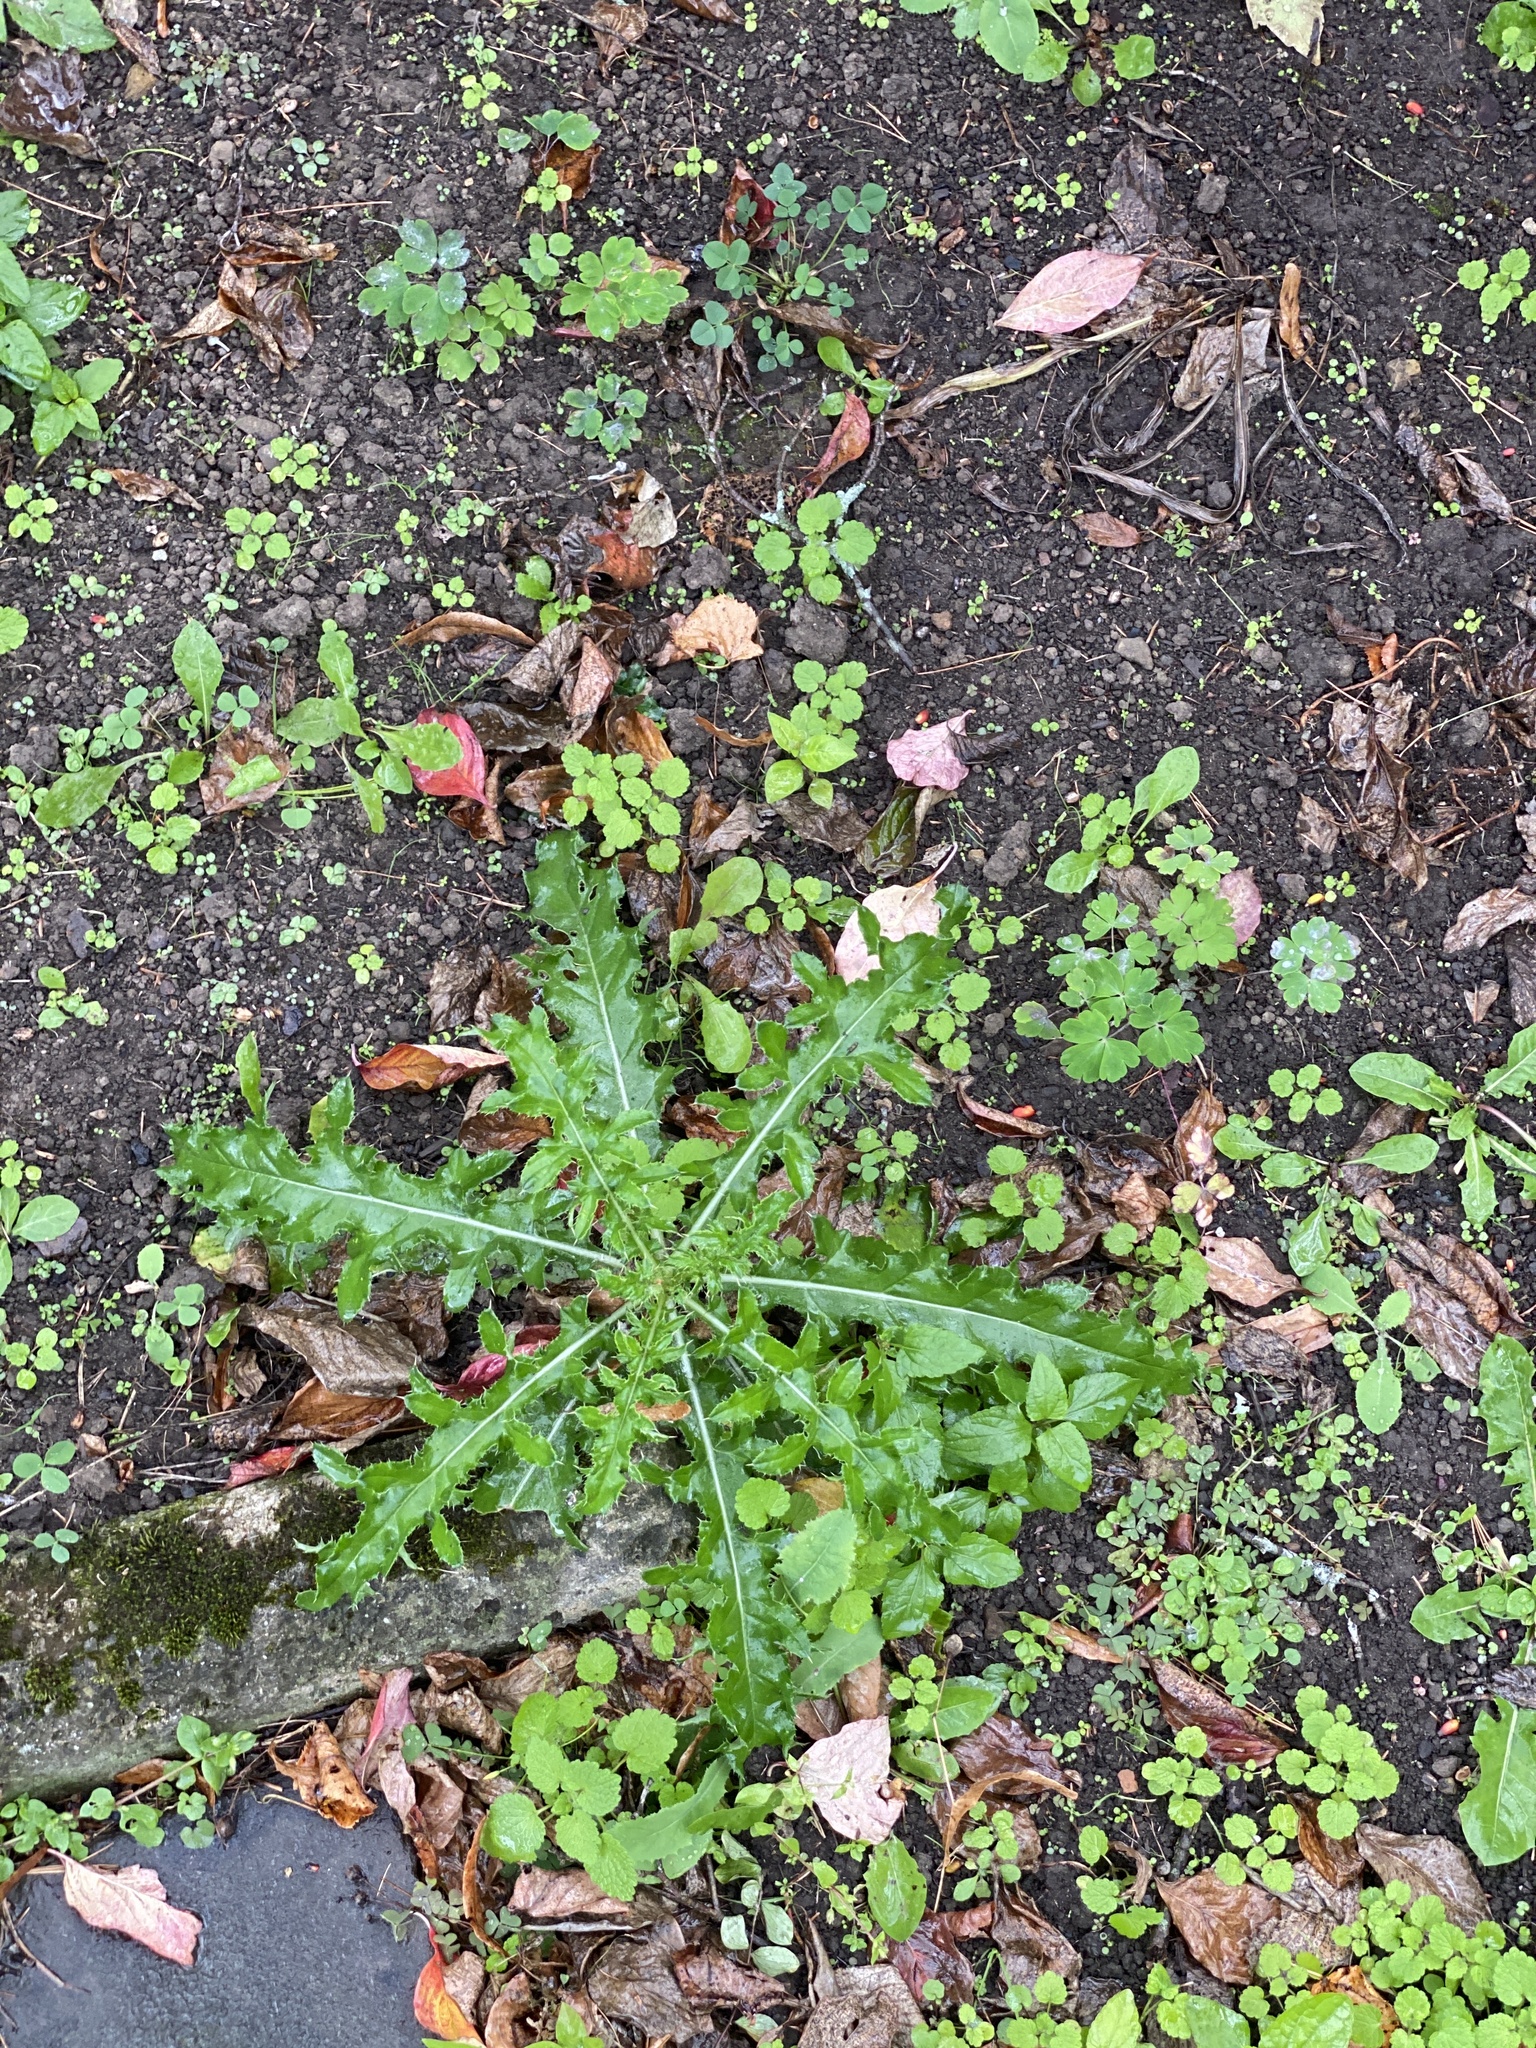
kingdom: Plantae
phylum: Tracheophyta
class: Magnoliopsida
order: Asterales
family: Asteraceae
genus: Cirsium
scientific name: Cirsium arvense
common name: Creeping thistle
